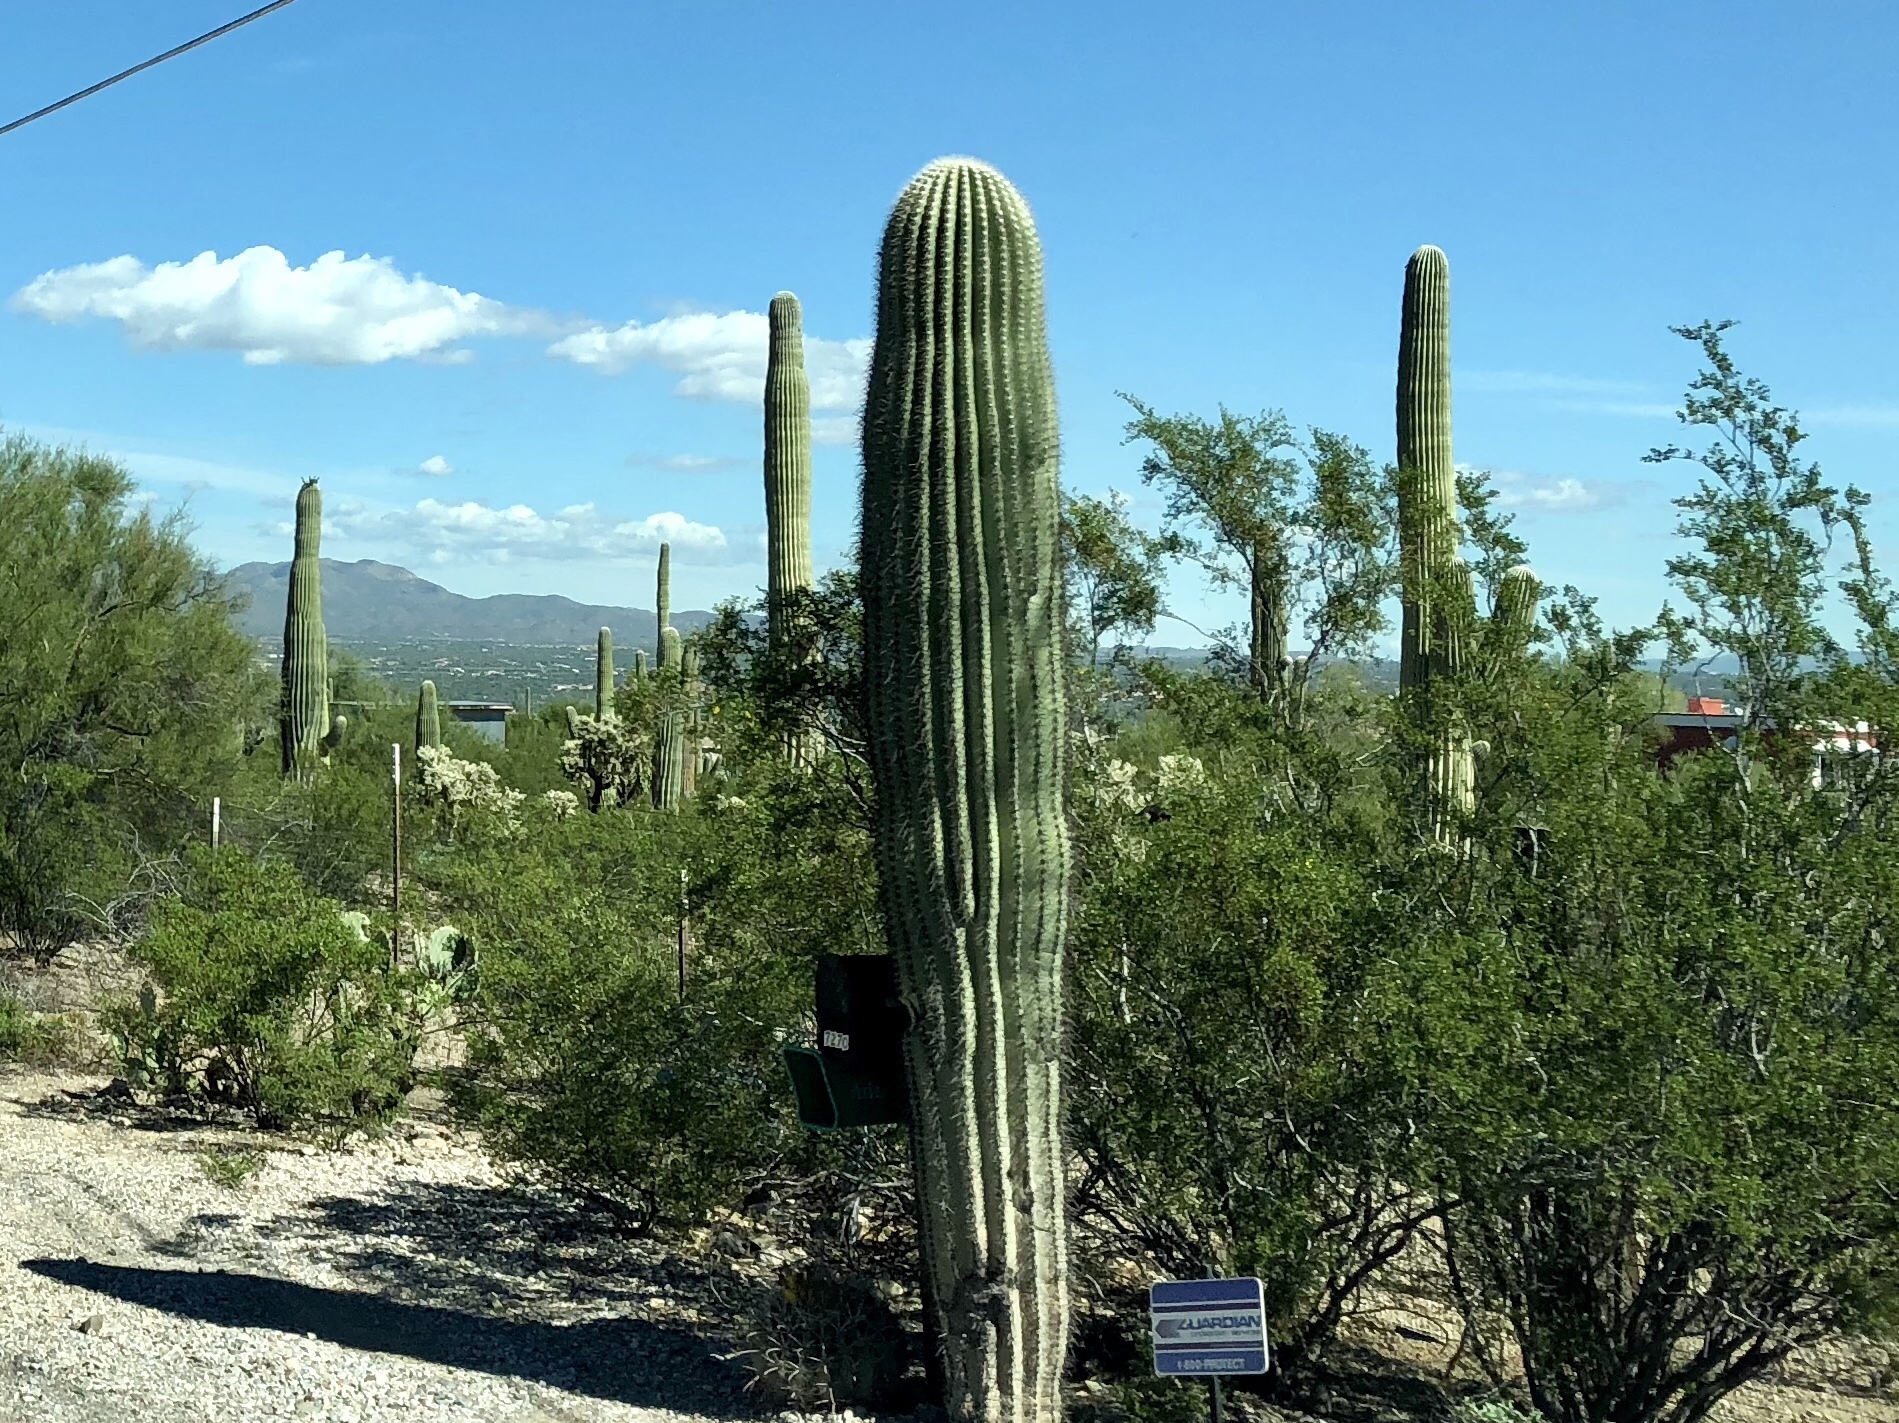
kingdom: Plantae
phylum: Tracheophyta
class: Magnoliopsida
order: Caryophyllales
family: Cactaceae
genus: Carnegiea
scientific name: Carnegiea gigantea
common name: Saguaro
